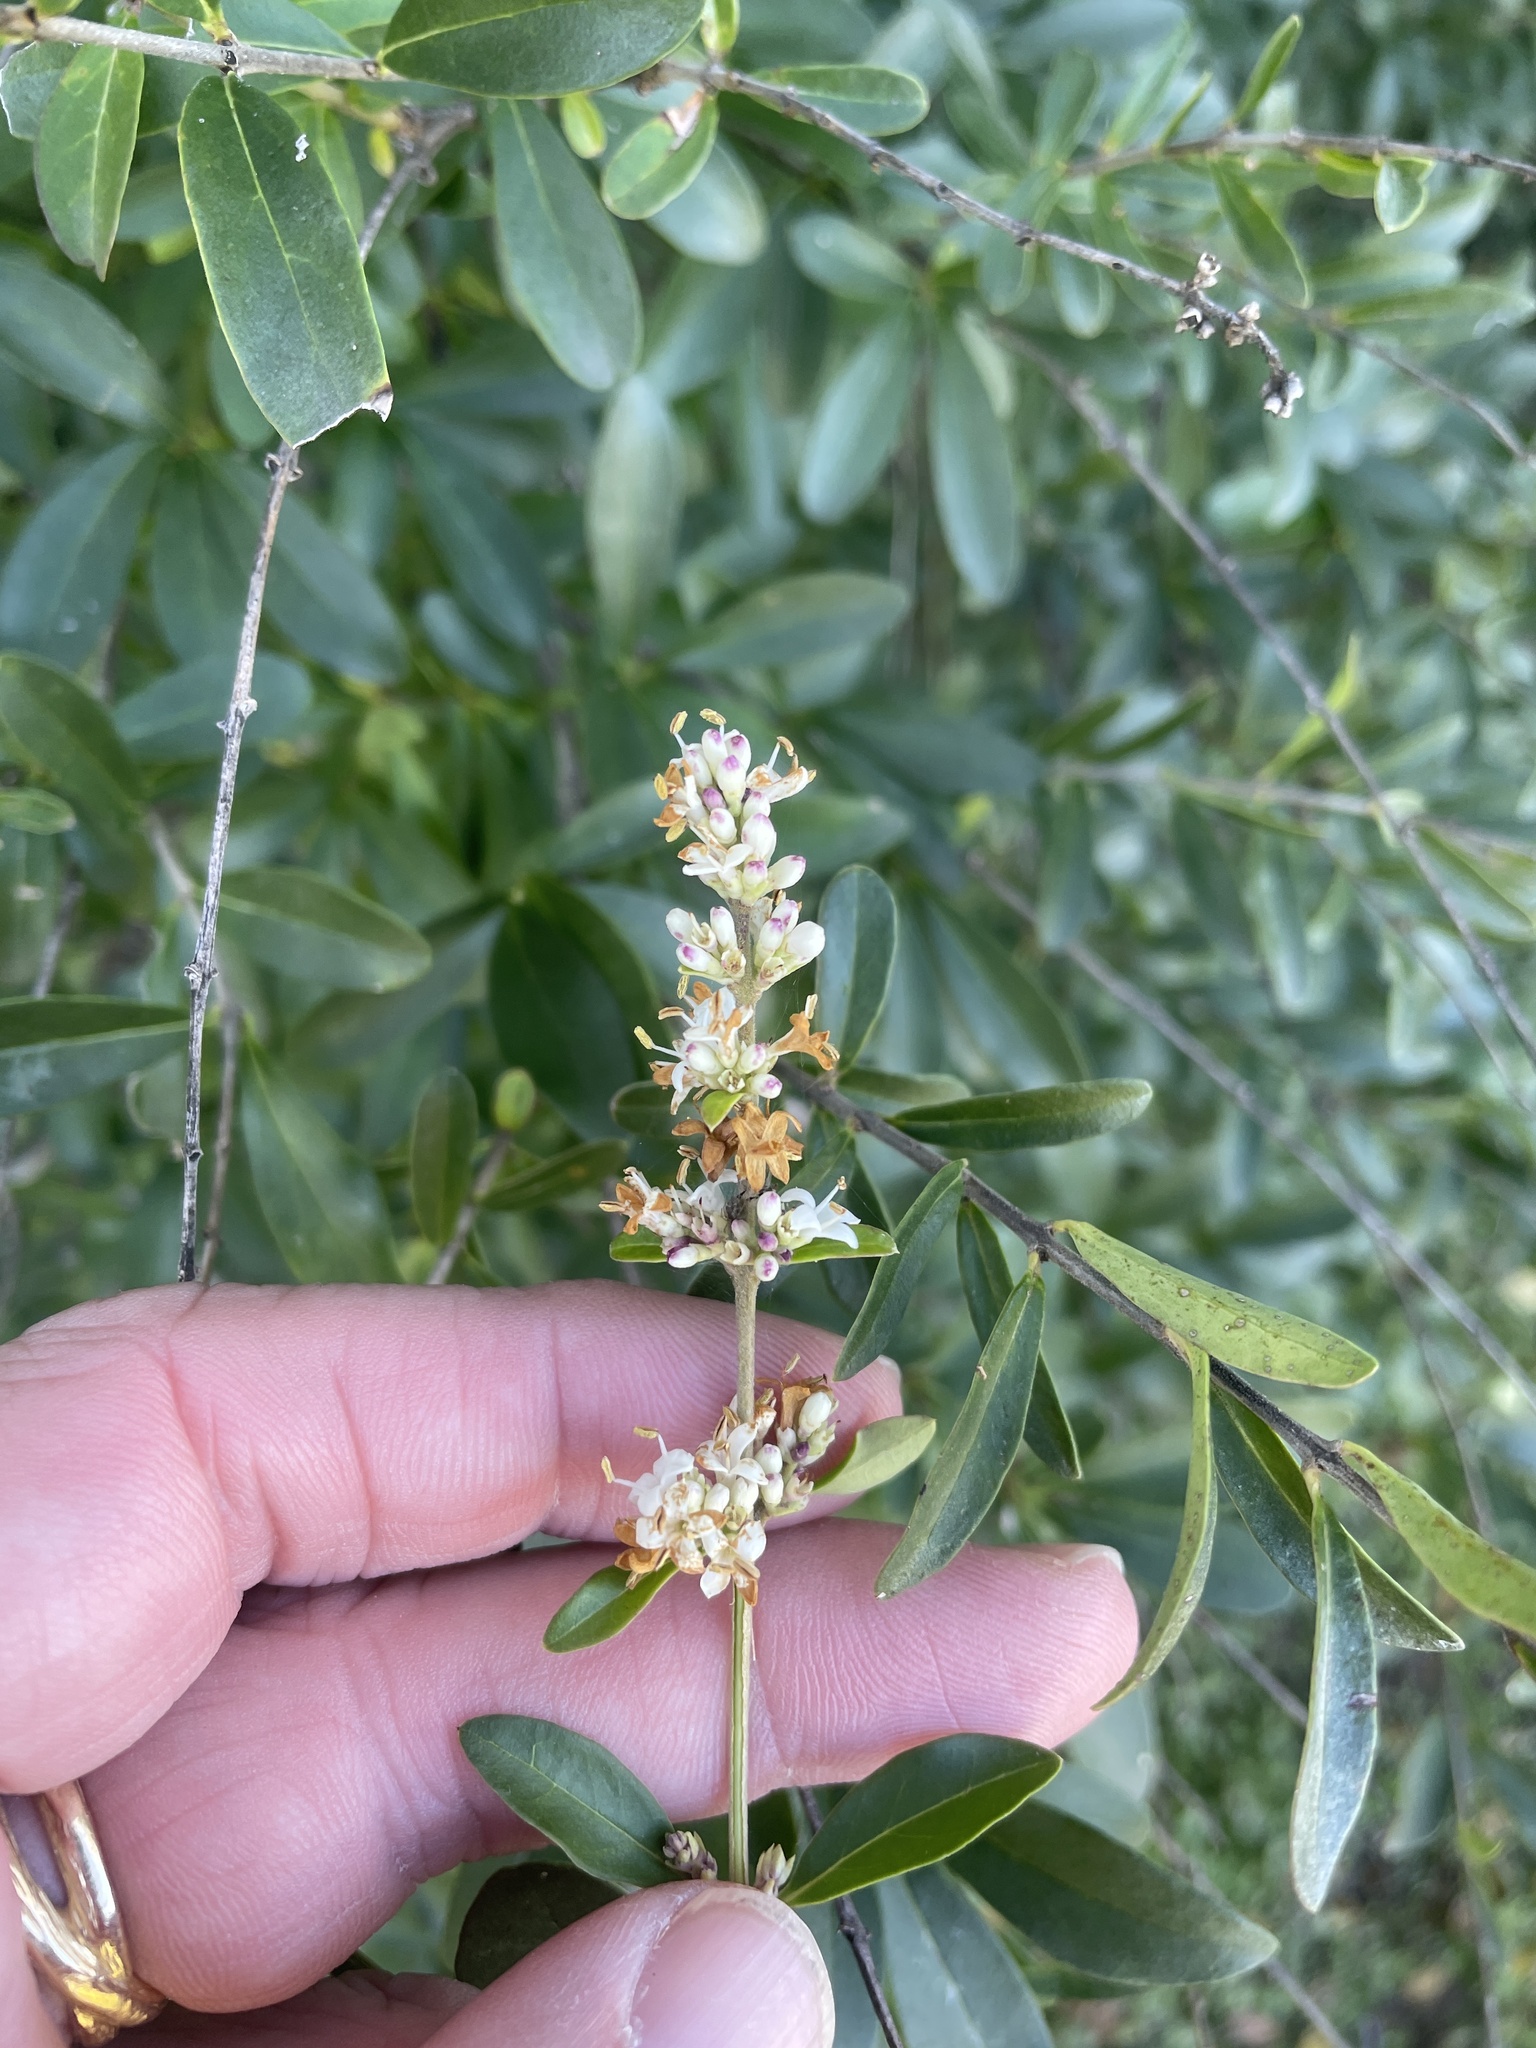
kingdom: Plantae
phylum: Tracheophyta
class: Magnoliopsida
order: Lamiales
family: Oleaceae
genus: Ligustrum
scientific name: Ligustrum quihoui
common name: Waxyleaf privet
